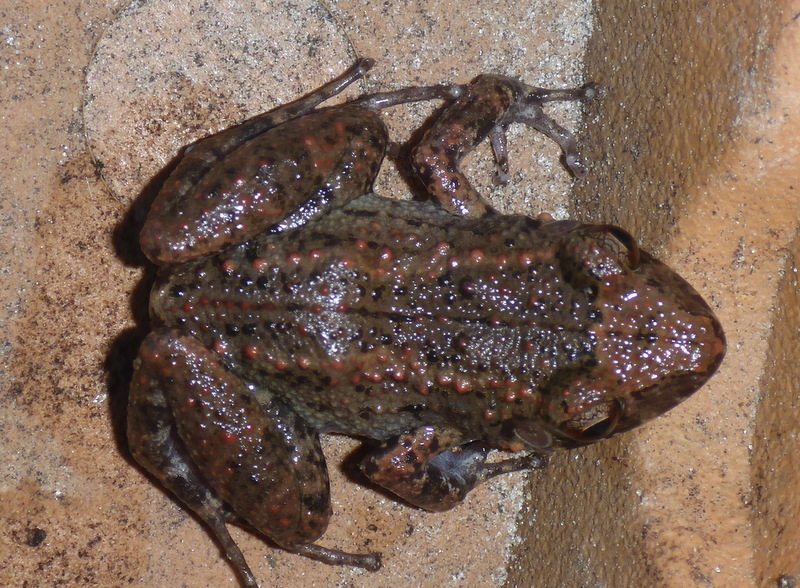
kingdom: Animalia
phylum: Chordata
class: Amphibia
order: Anura
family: Eleutherodactylidae
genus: Eleutherodactylus
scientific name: Eleutherodactylus planirostris
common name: Greenhouse frog
